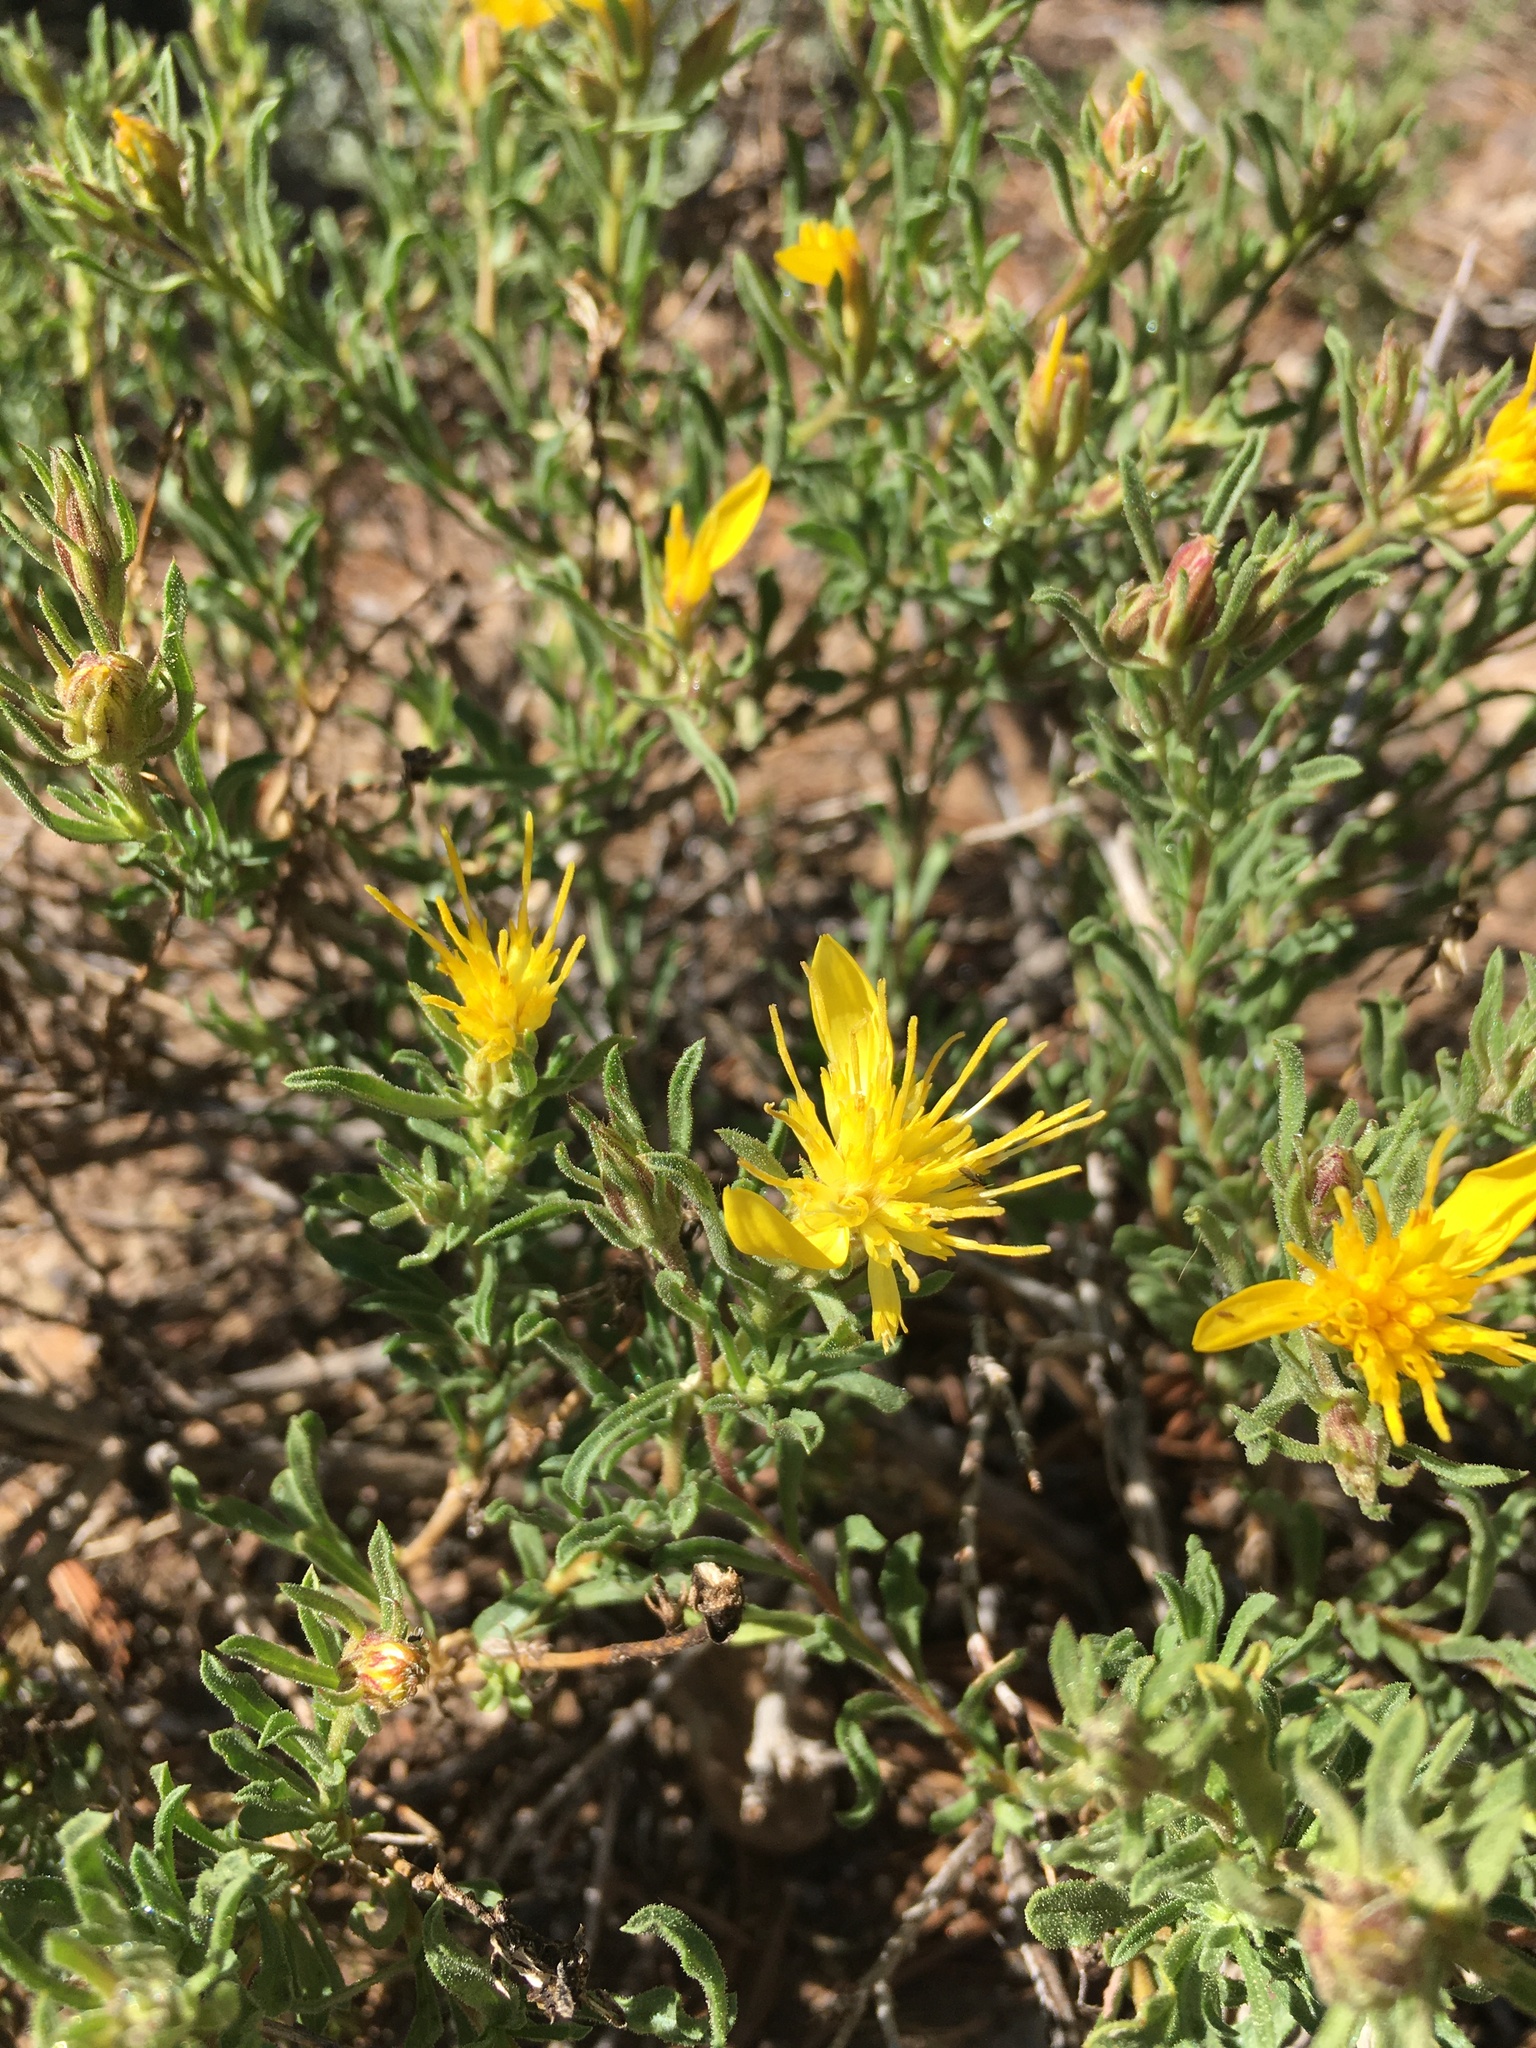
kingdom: Plantae
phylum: Tracheophyta
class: Magnoliopsida
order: Asterales
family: Asteraceae
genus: Ericameria
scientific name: Ericameria suffruticosa
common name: Goldenweed
